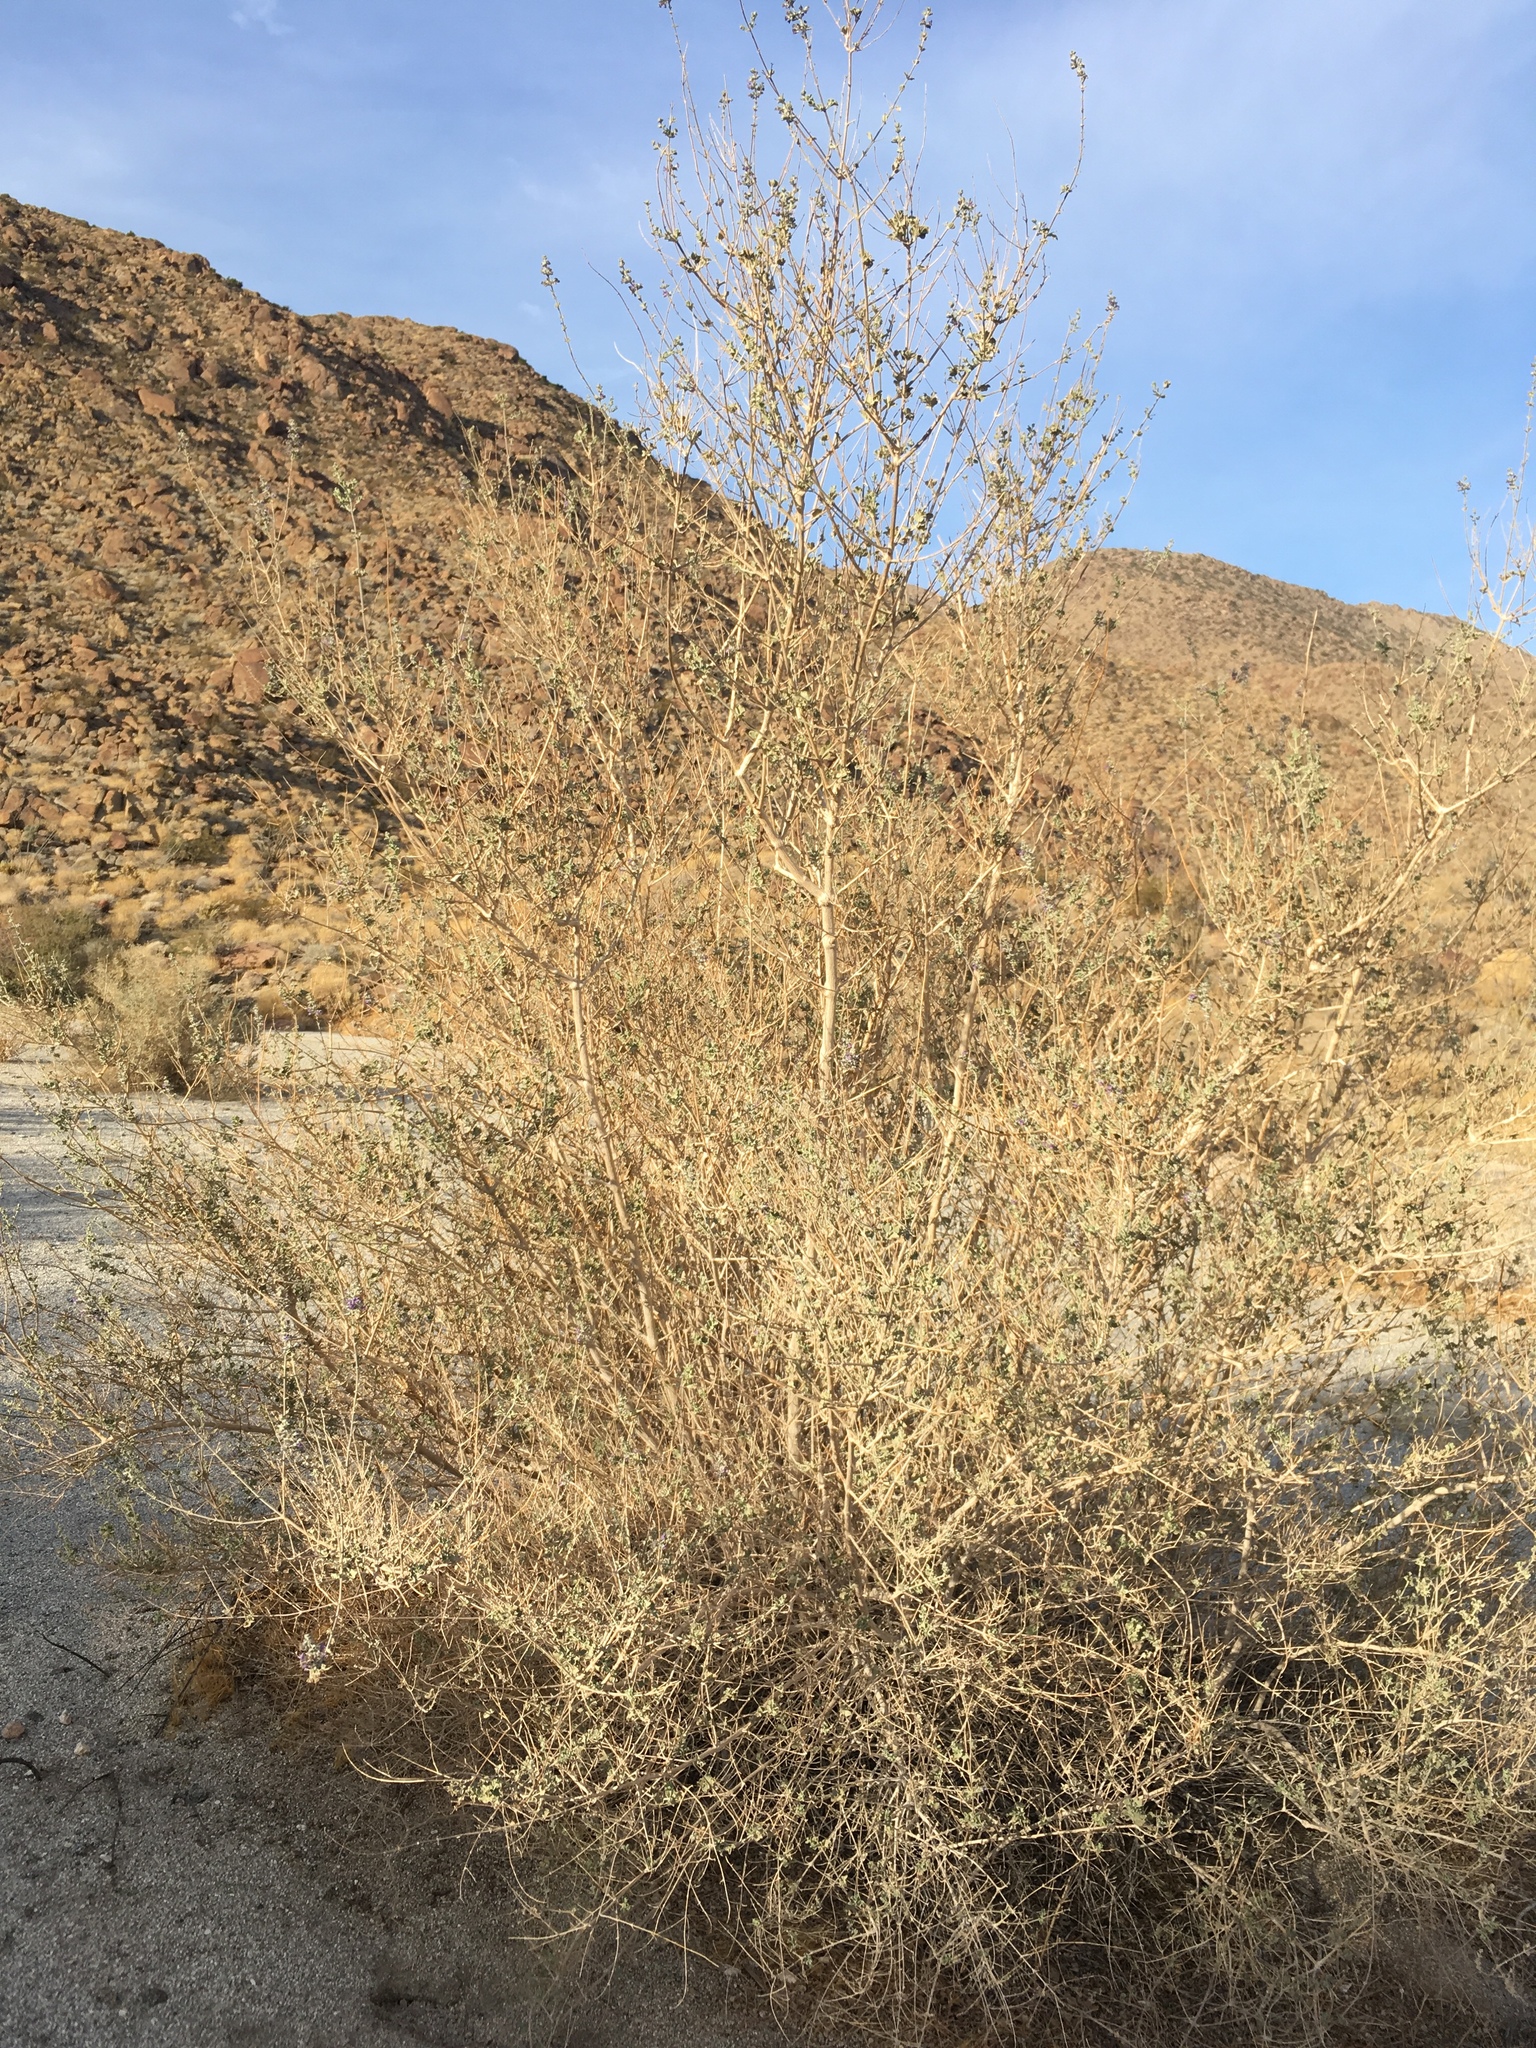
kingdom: Plantae
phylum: Tracheophyta
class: Magnoliopsida
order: Lamiales
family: Lamiaceae
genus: Condea
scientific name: Condea emoryi
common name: Chia
